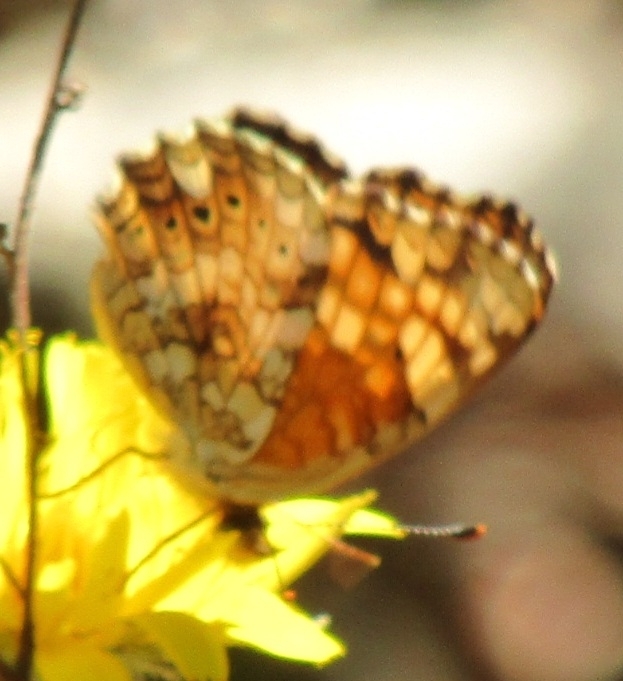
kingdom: Animalia
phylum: Arthropoda
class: Insecta
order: Lepidoptera
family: Nymphalidae
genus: Eresia
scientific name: Eresia aveyrona
